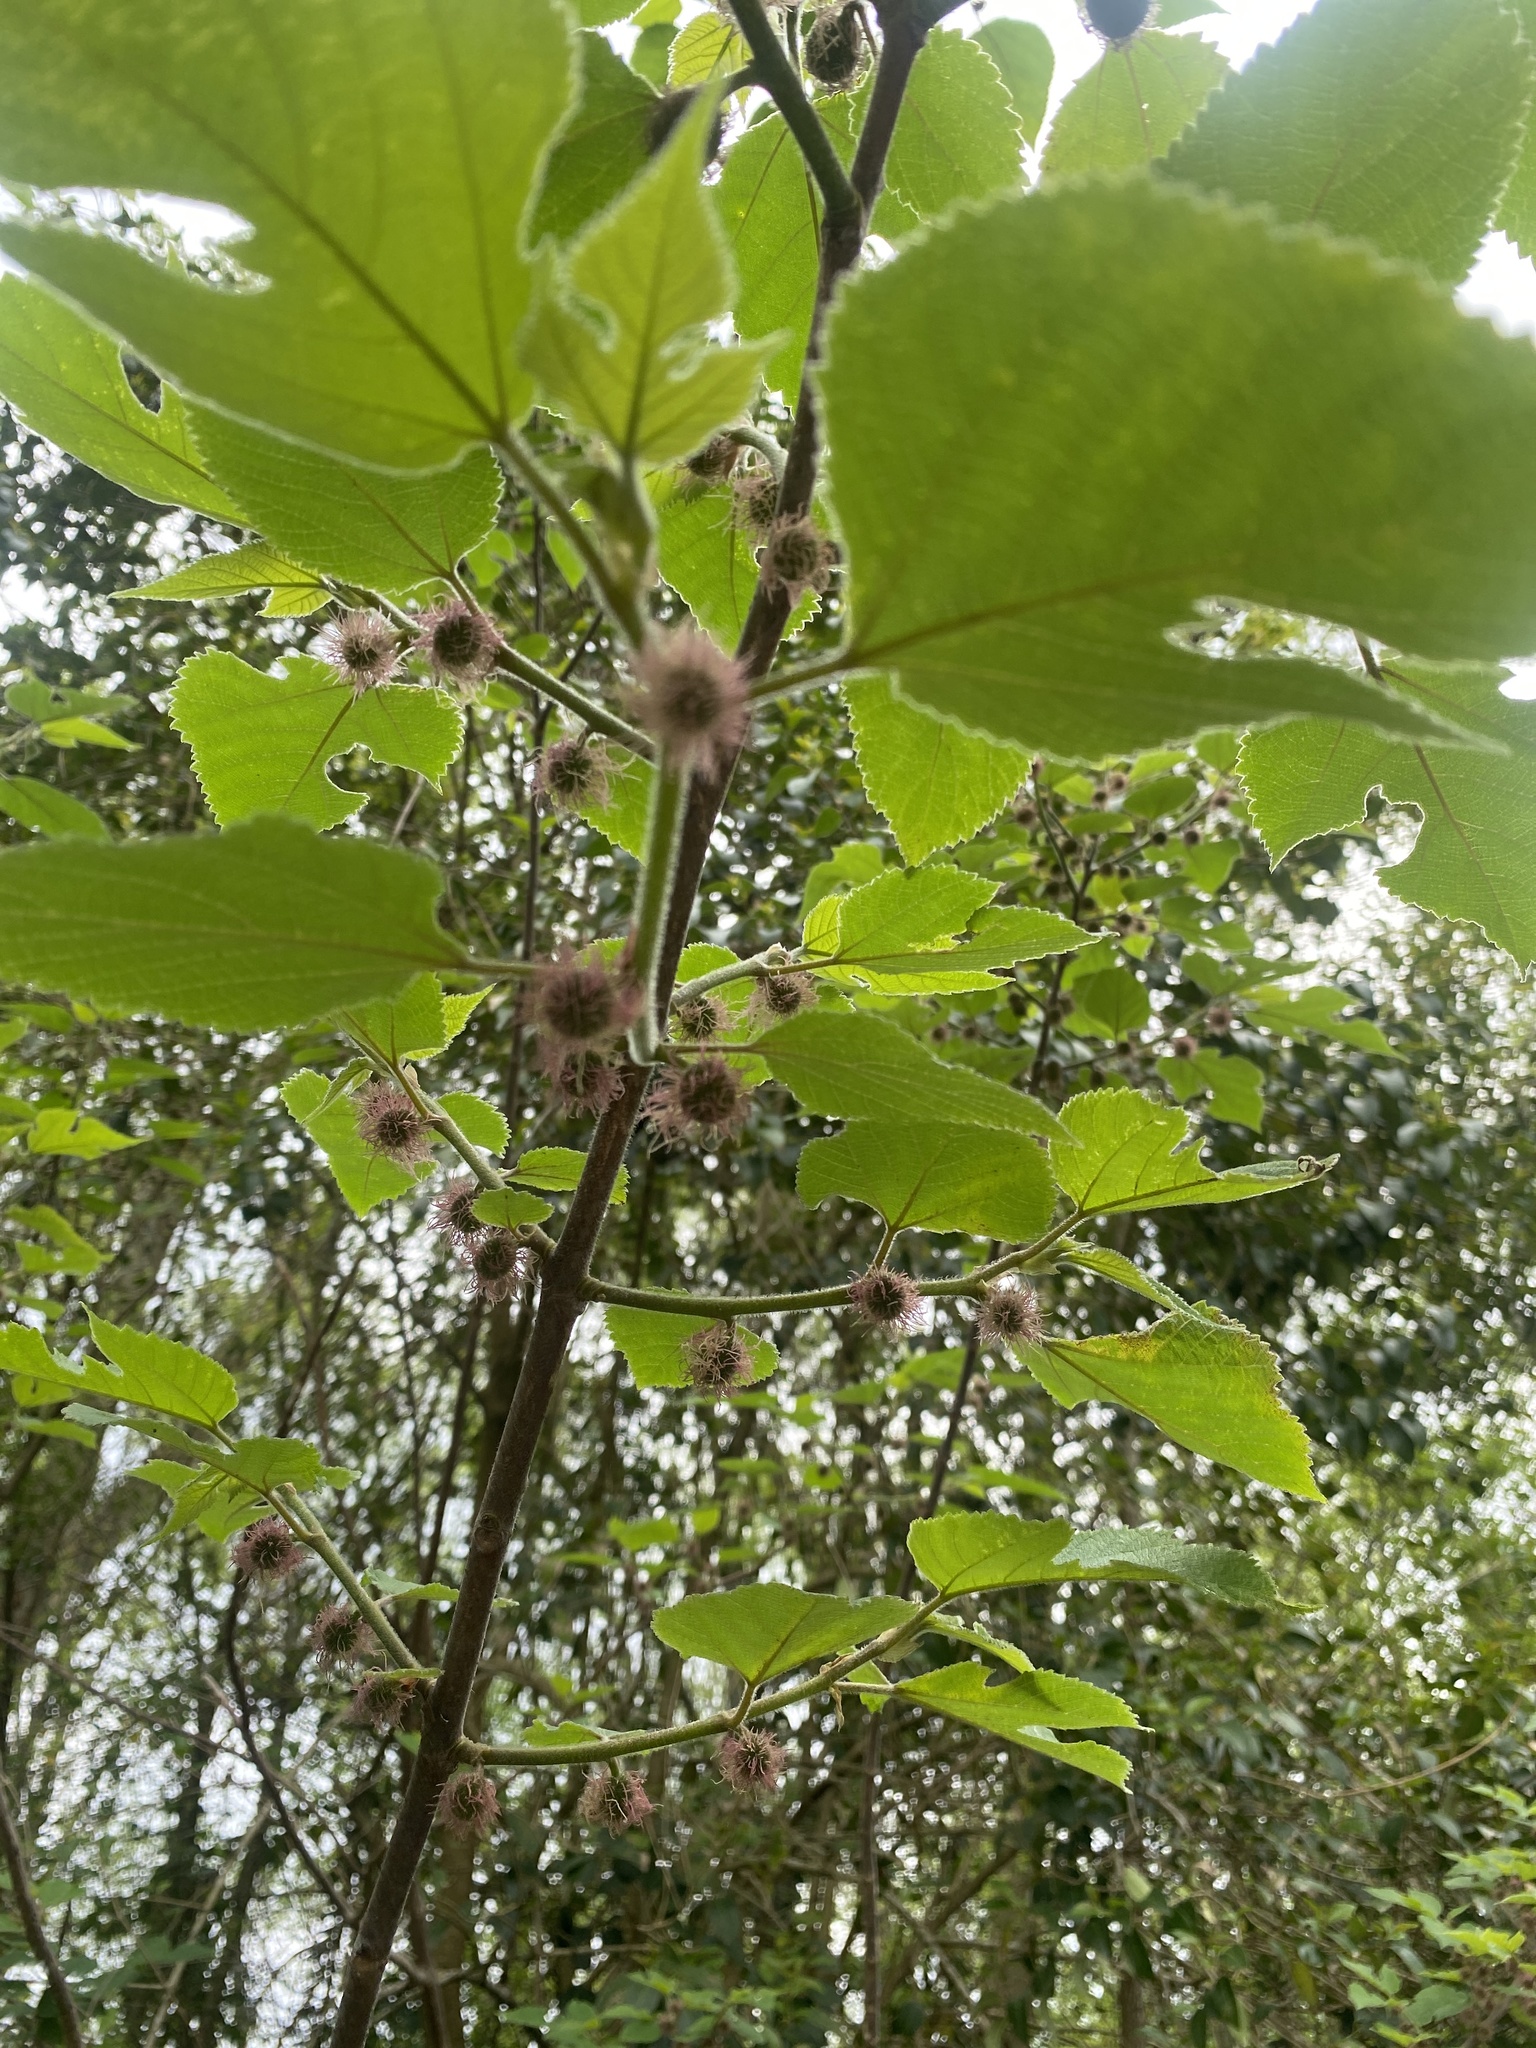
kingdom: Plantae
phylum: Tracheophyta
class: Magnoliopsida
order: Rosales
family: Moraceae
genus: Broussonetia
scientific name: Broussonetia papyrifera
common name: Paper mulberry
